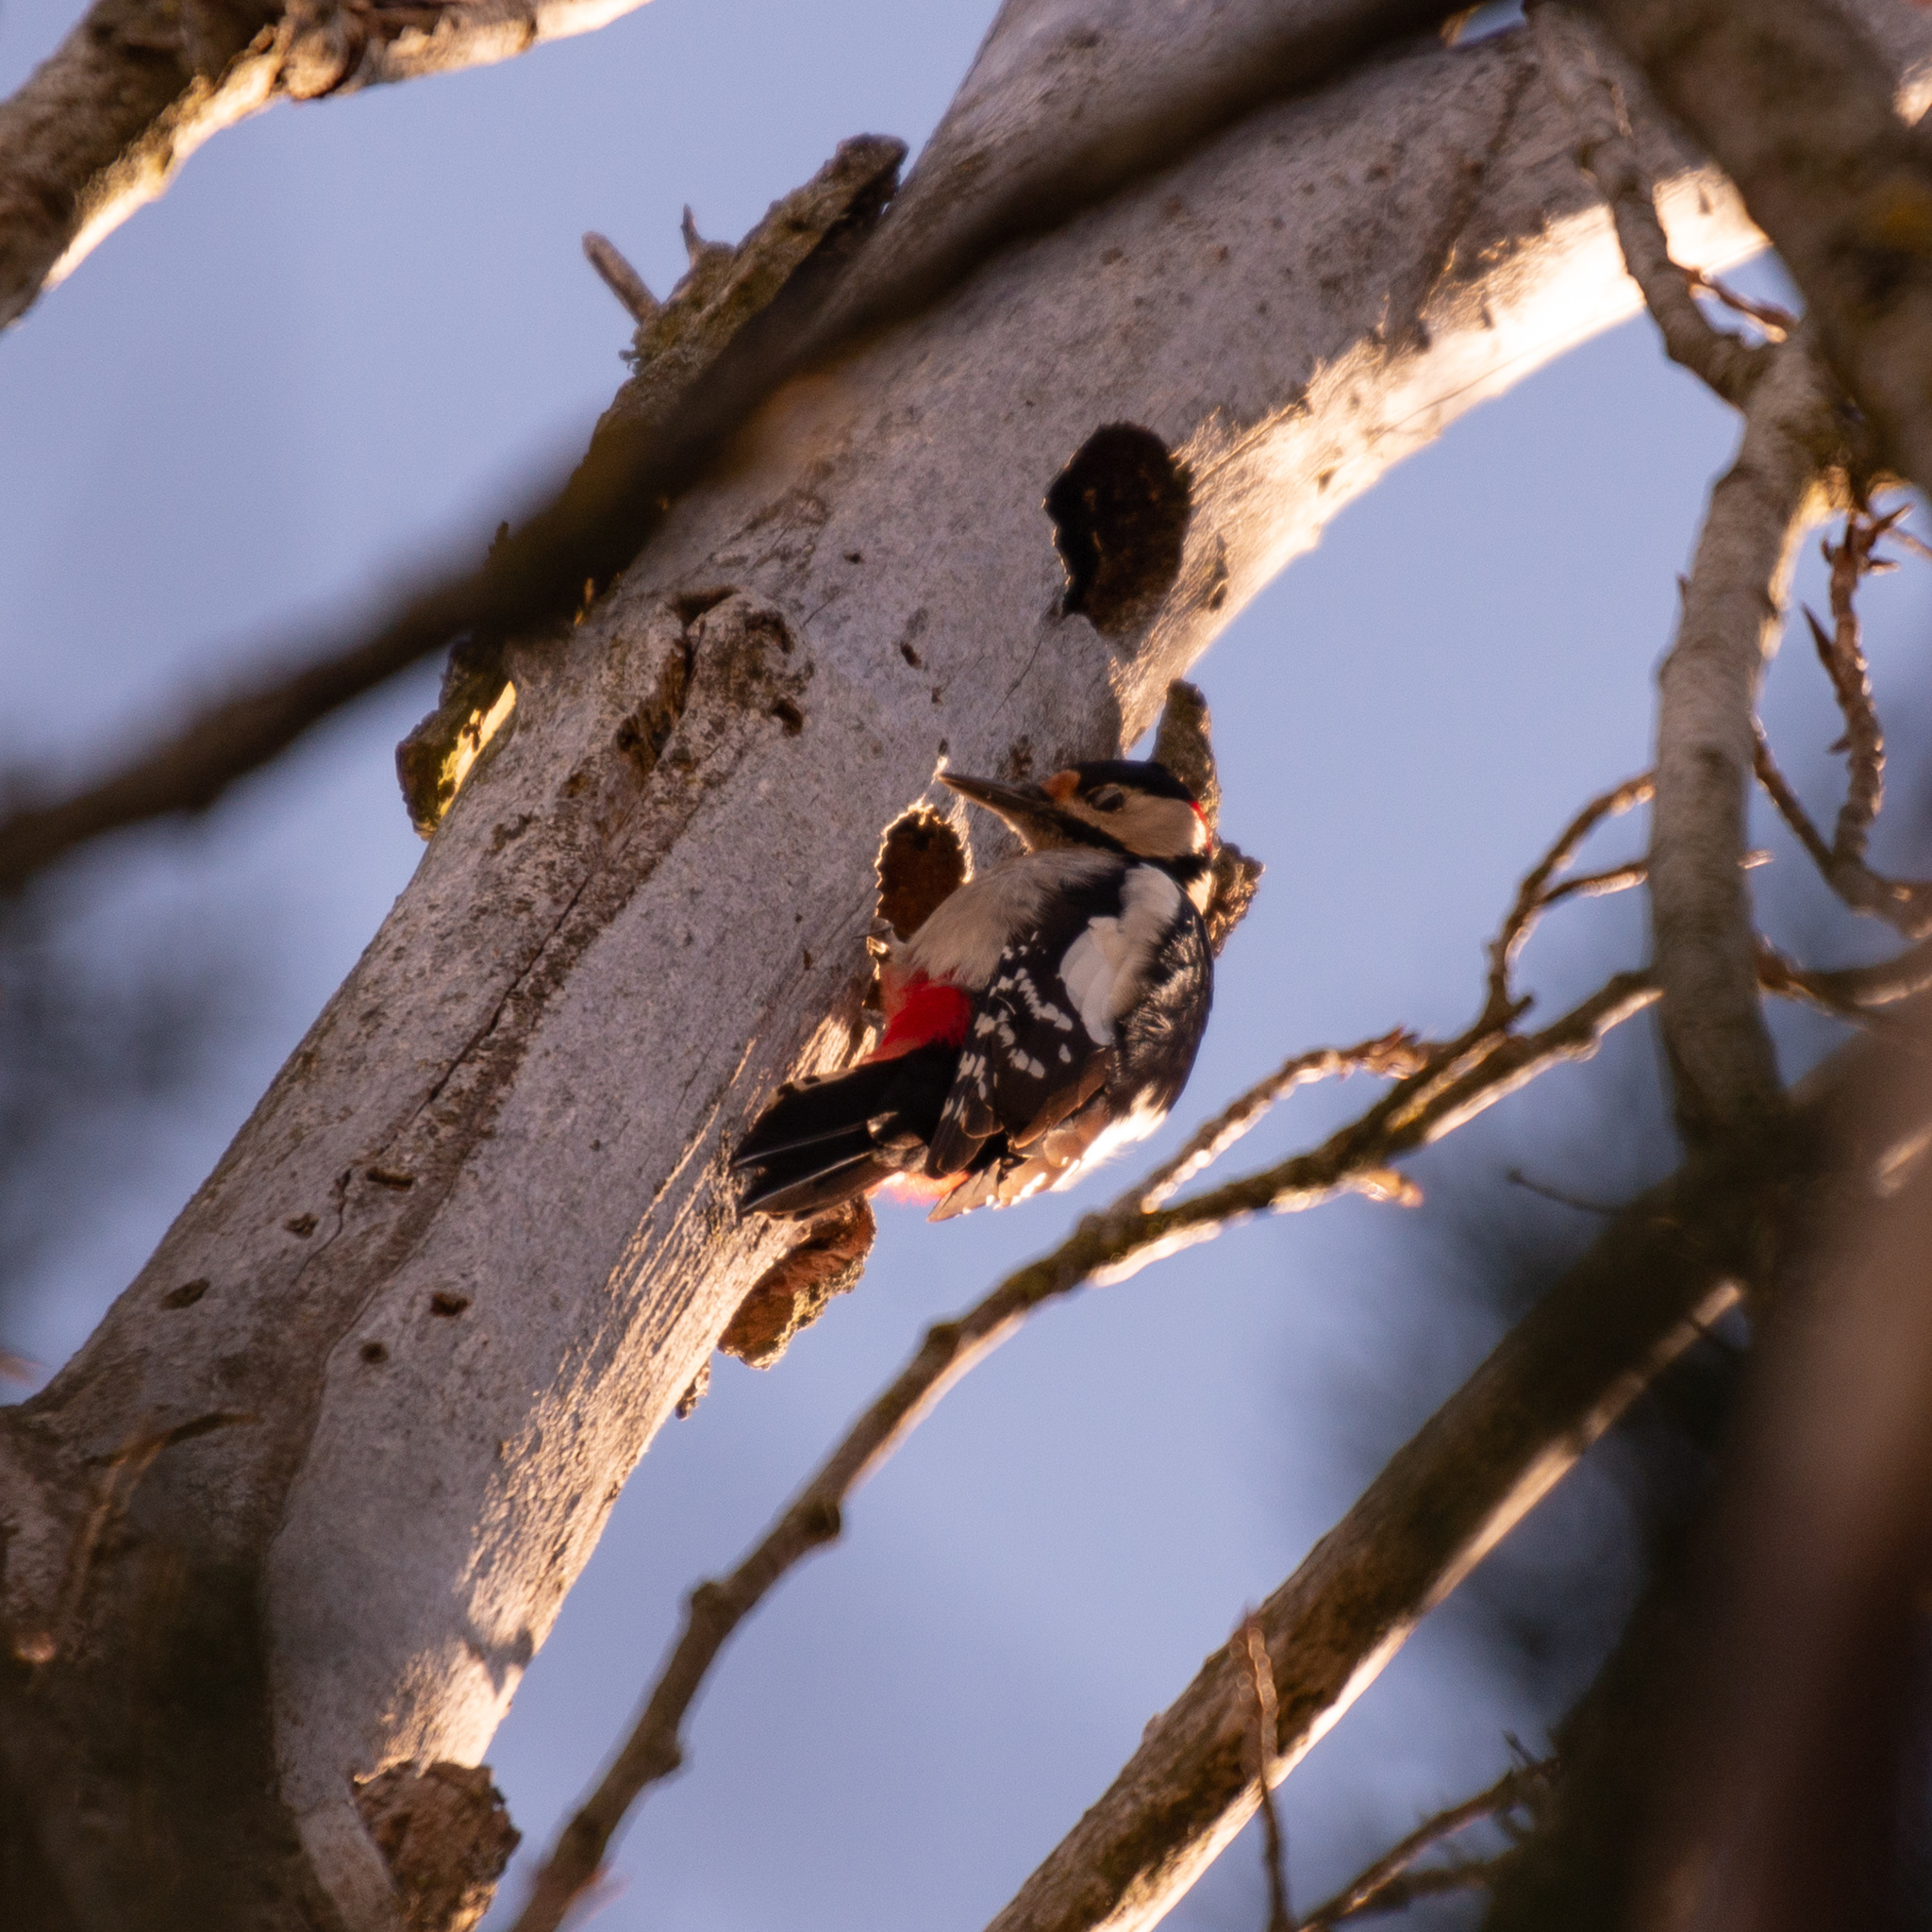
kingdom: Animalia
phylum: Chordata
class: Aves
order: Piciformes
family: Picidae
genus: Dendrocopos
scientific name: Dendrocopos major
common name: Great spotted woodpecker
